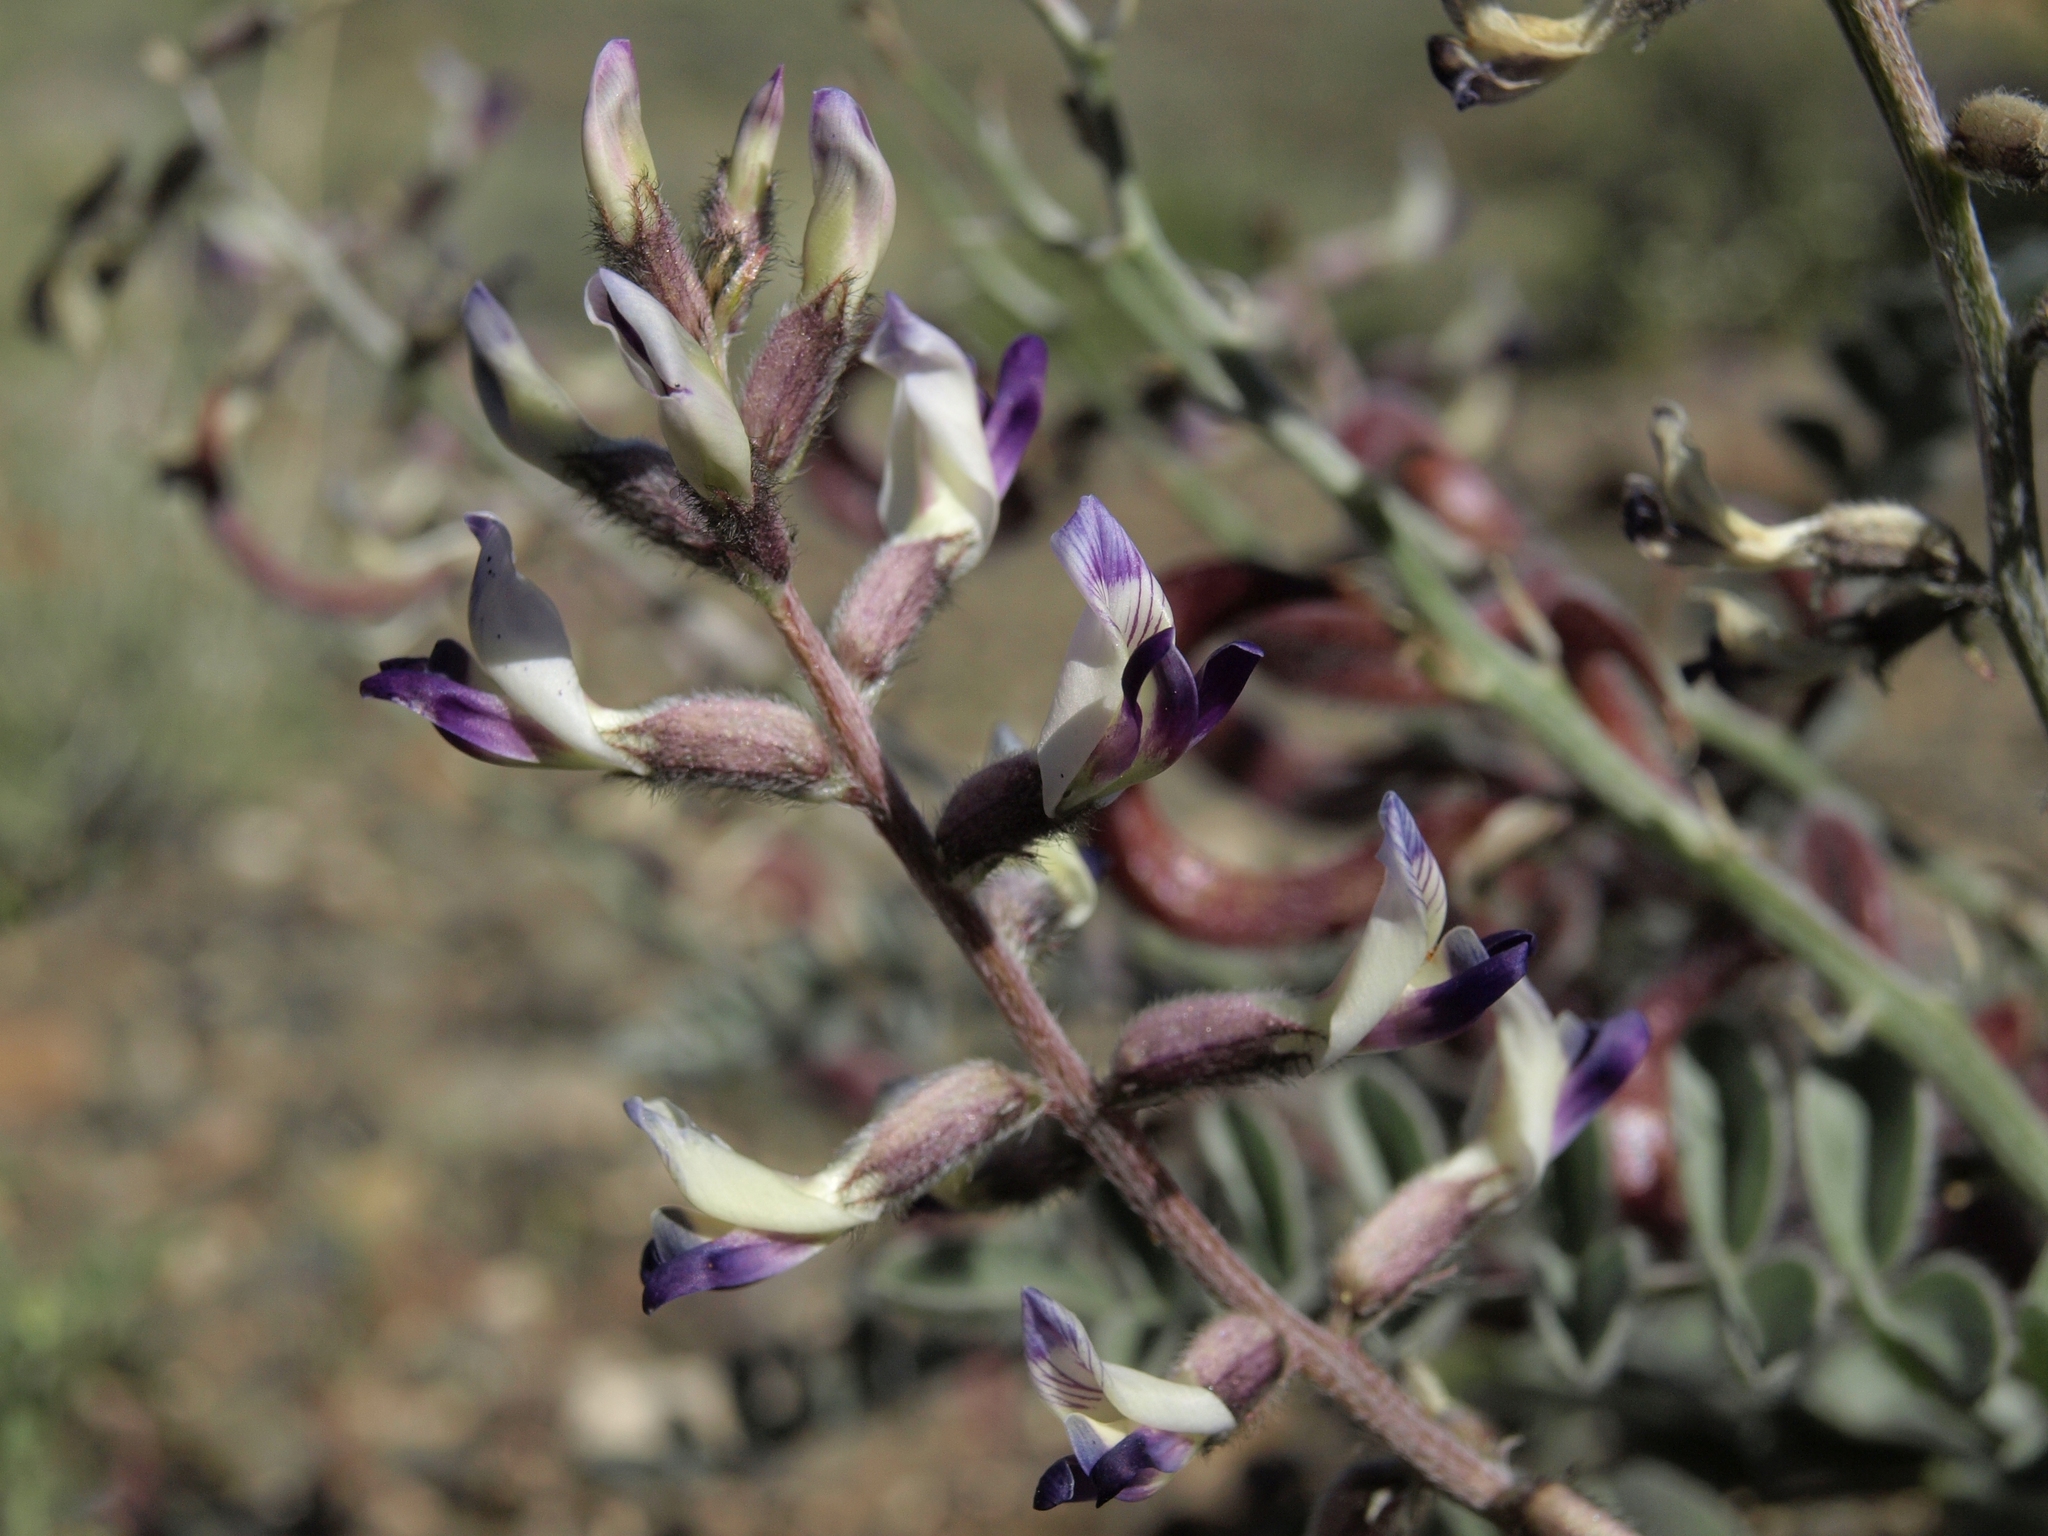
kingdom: Plantae
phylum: Tracheophyta
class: Magnoliopsida
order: Fabales
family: Fabaceae
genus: Astragalus
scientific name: Astragalus layneae
